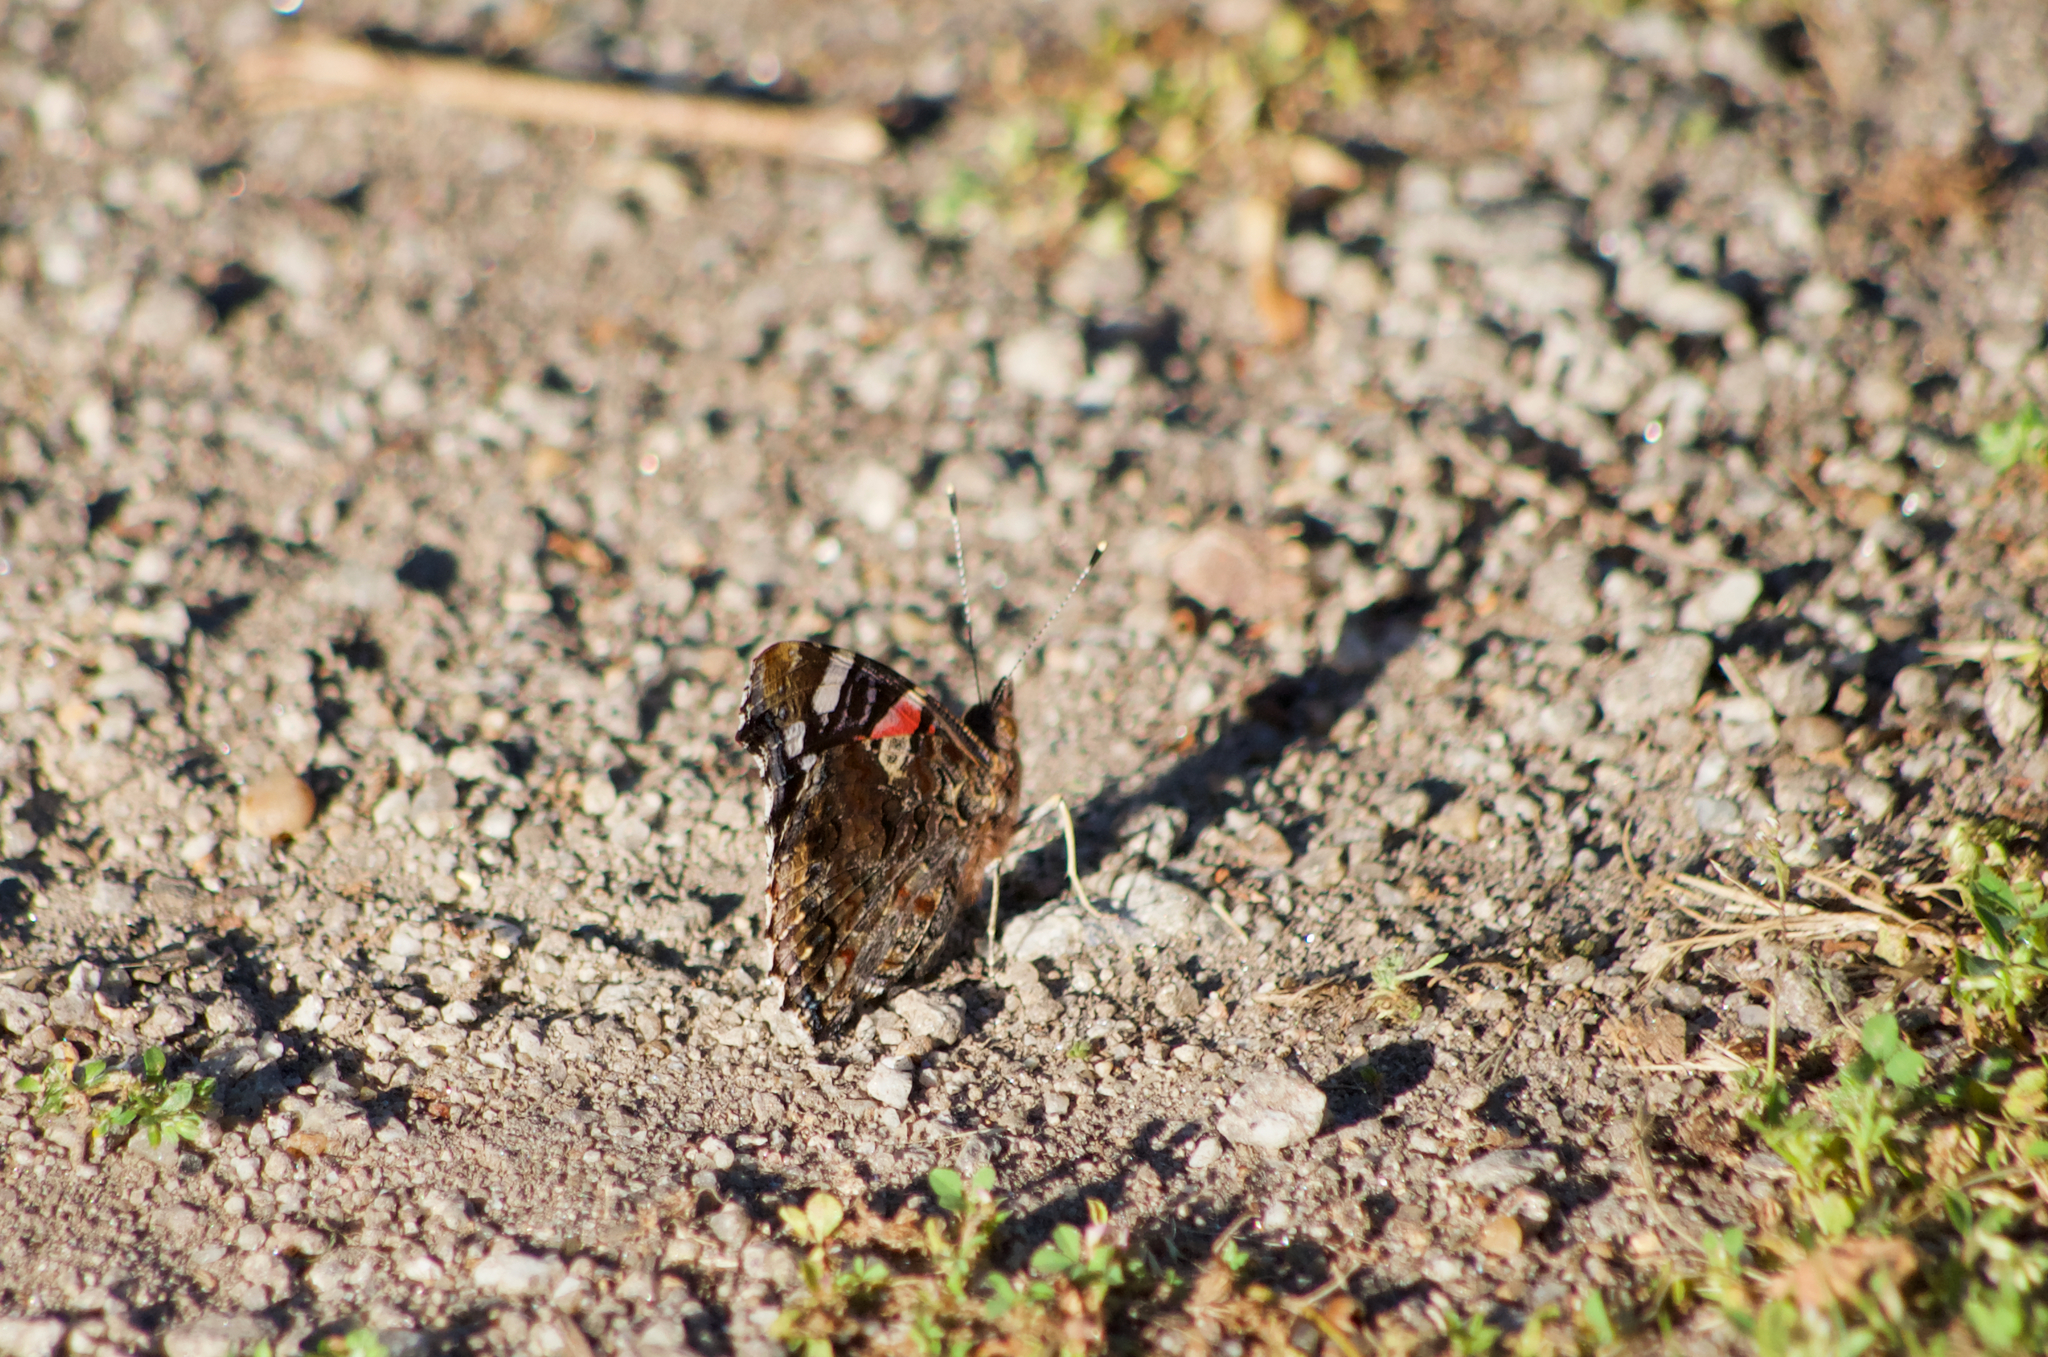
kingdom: Animalia
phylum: Arthropoda
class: Insecta
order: Lepidoptera
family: Nymphalidae
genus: Vanessa
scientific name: Vanessa atalanta
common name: Red admiral
